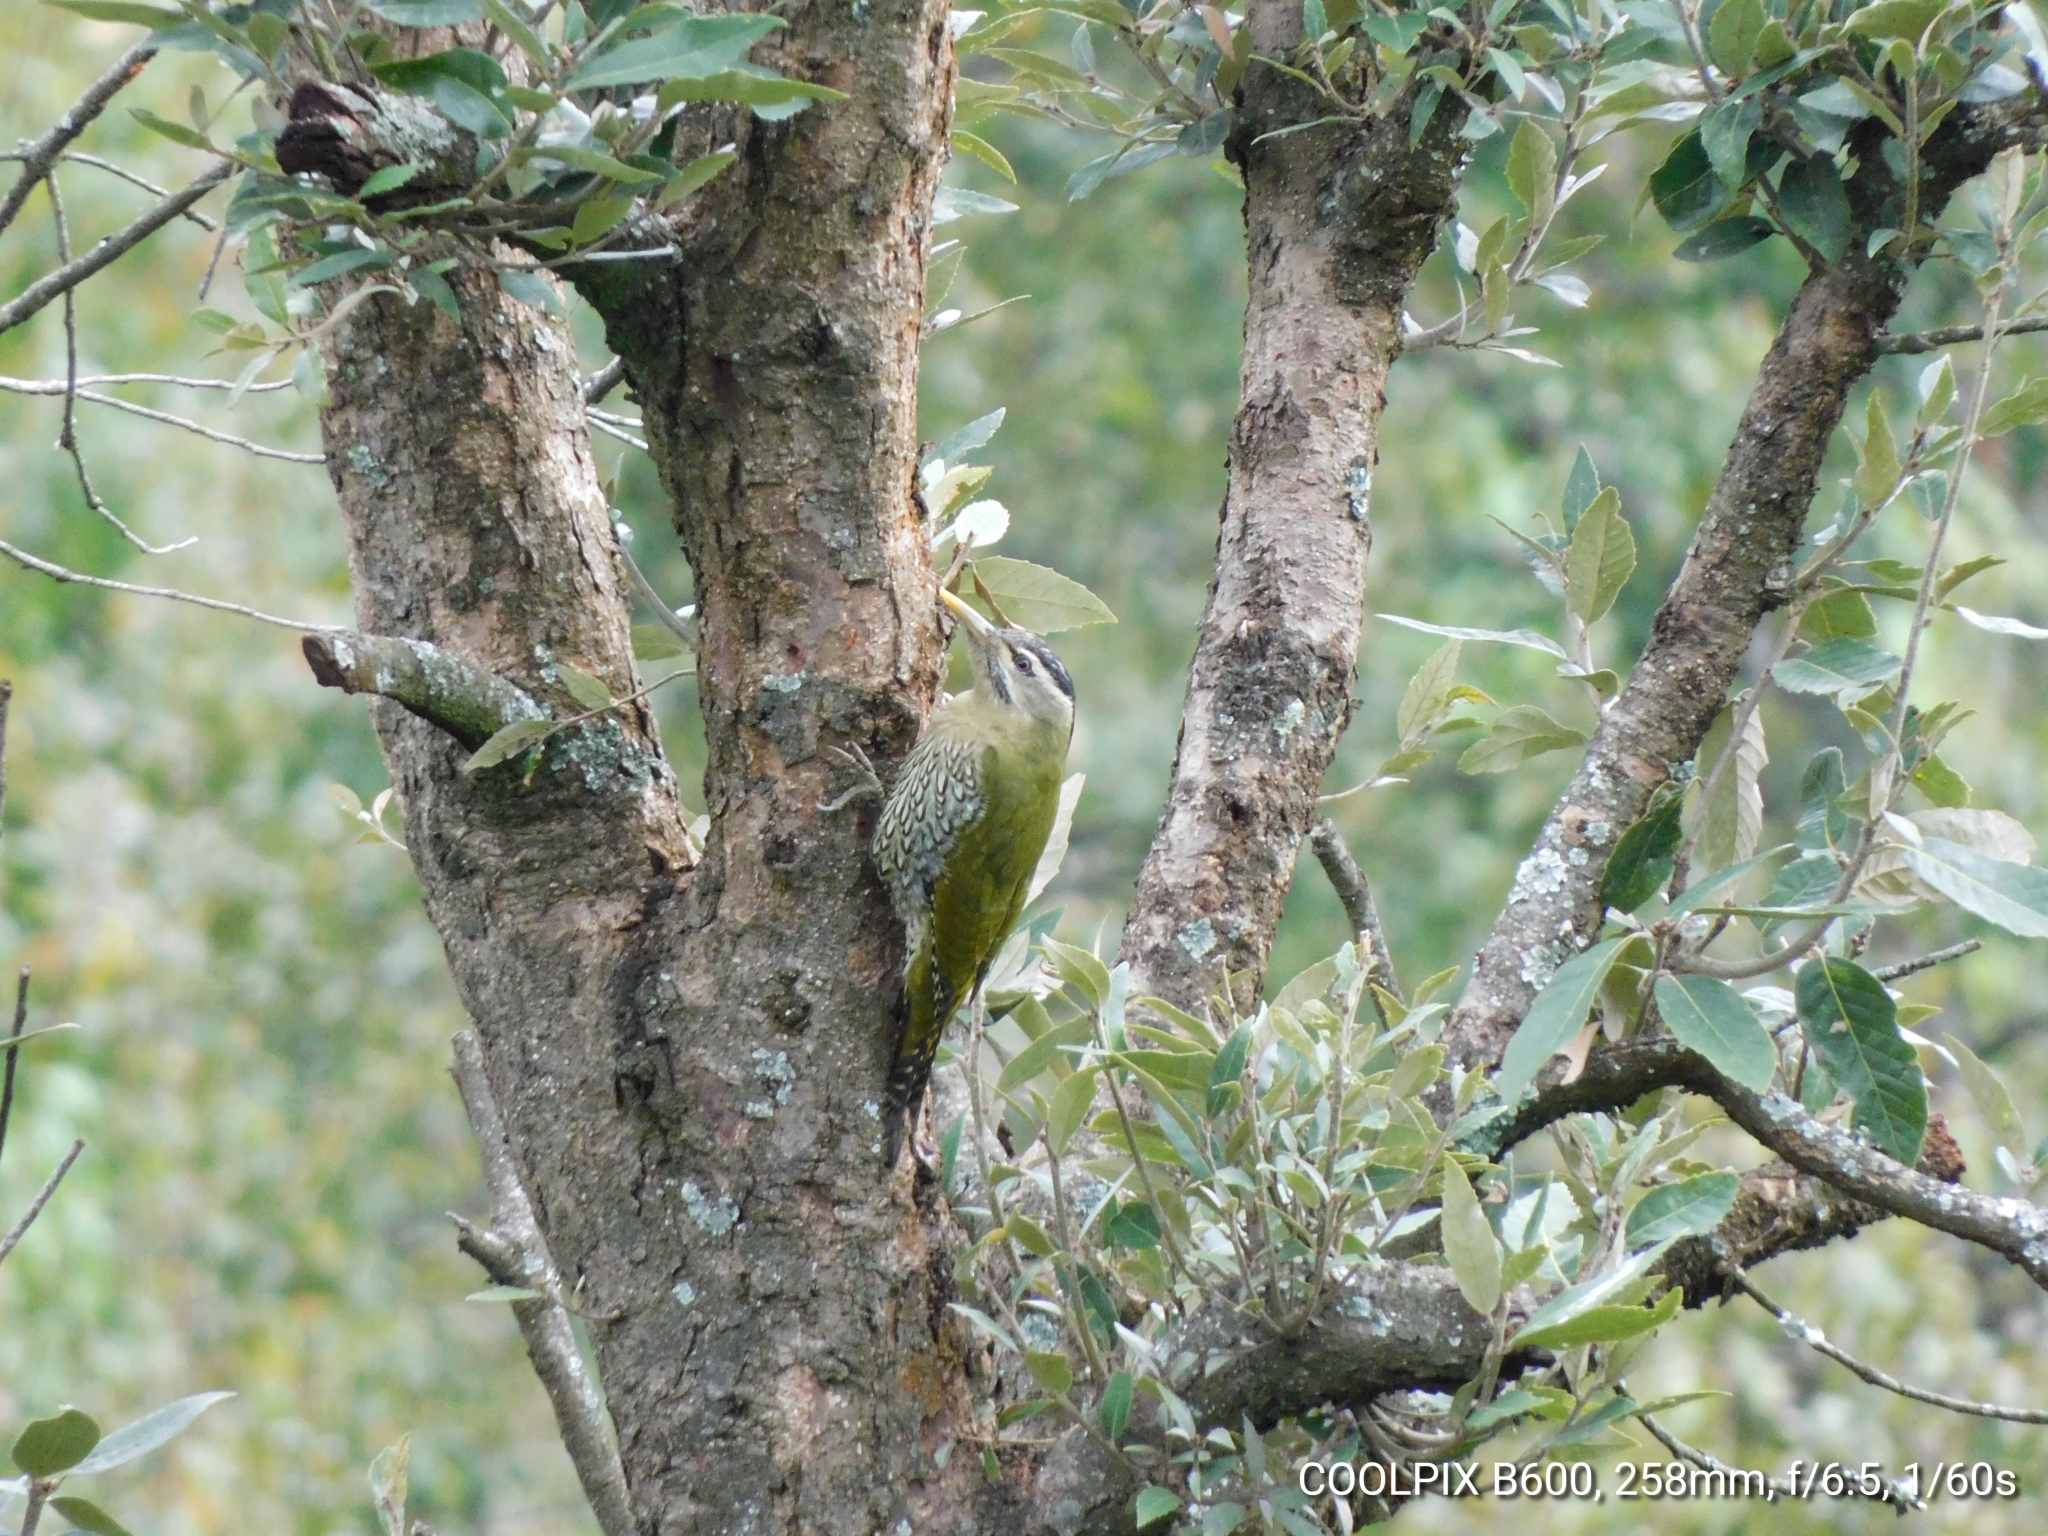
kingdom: Animalia
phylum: Chordata
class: Aves
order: Piciformes
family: Picidae
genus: Picus
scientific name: Picus squamatus
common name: Scaly-bellied woodpecker
